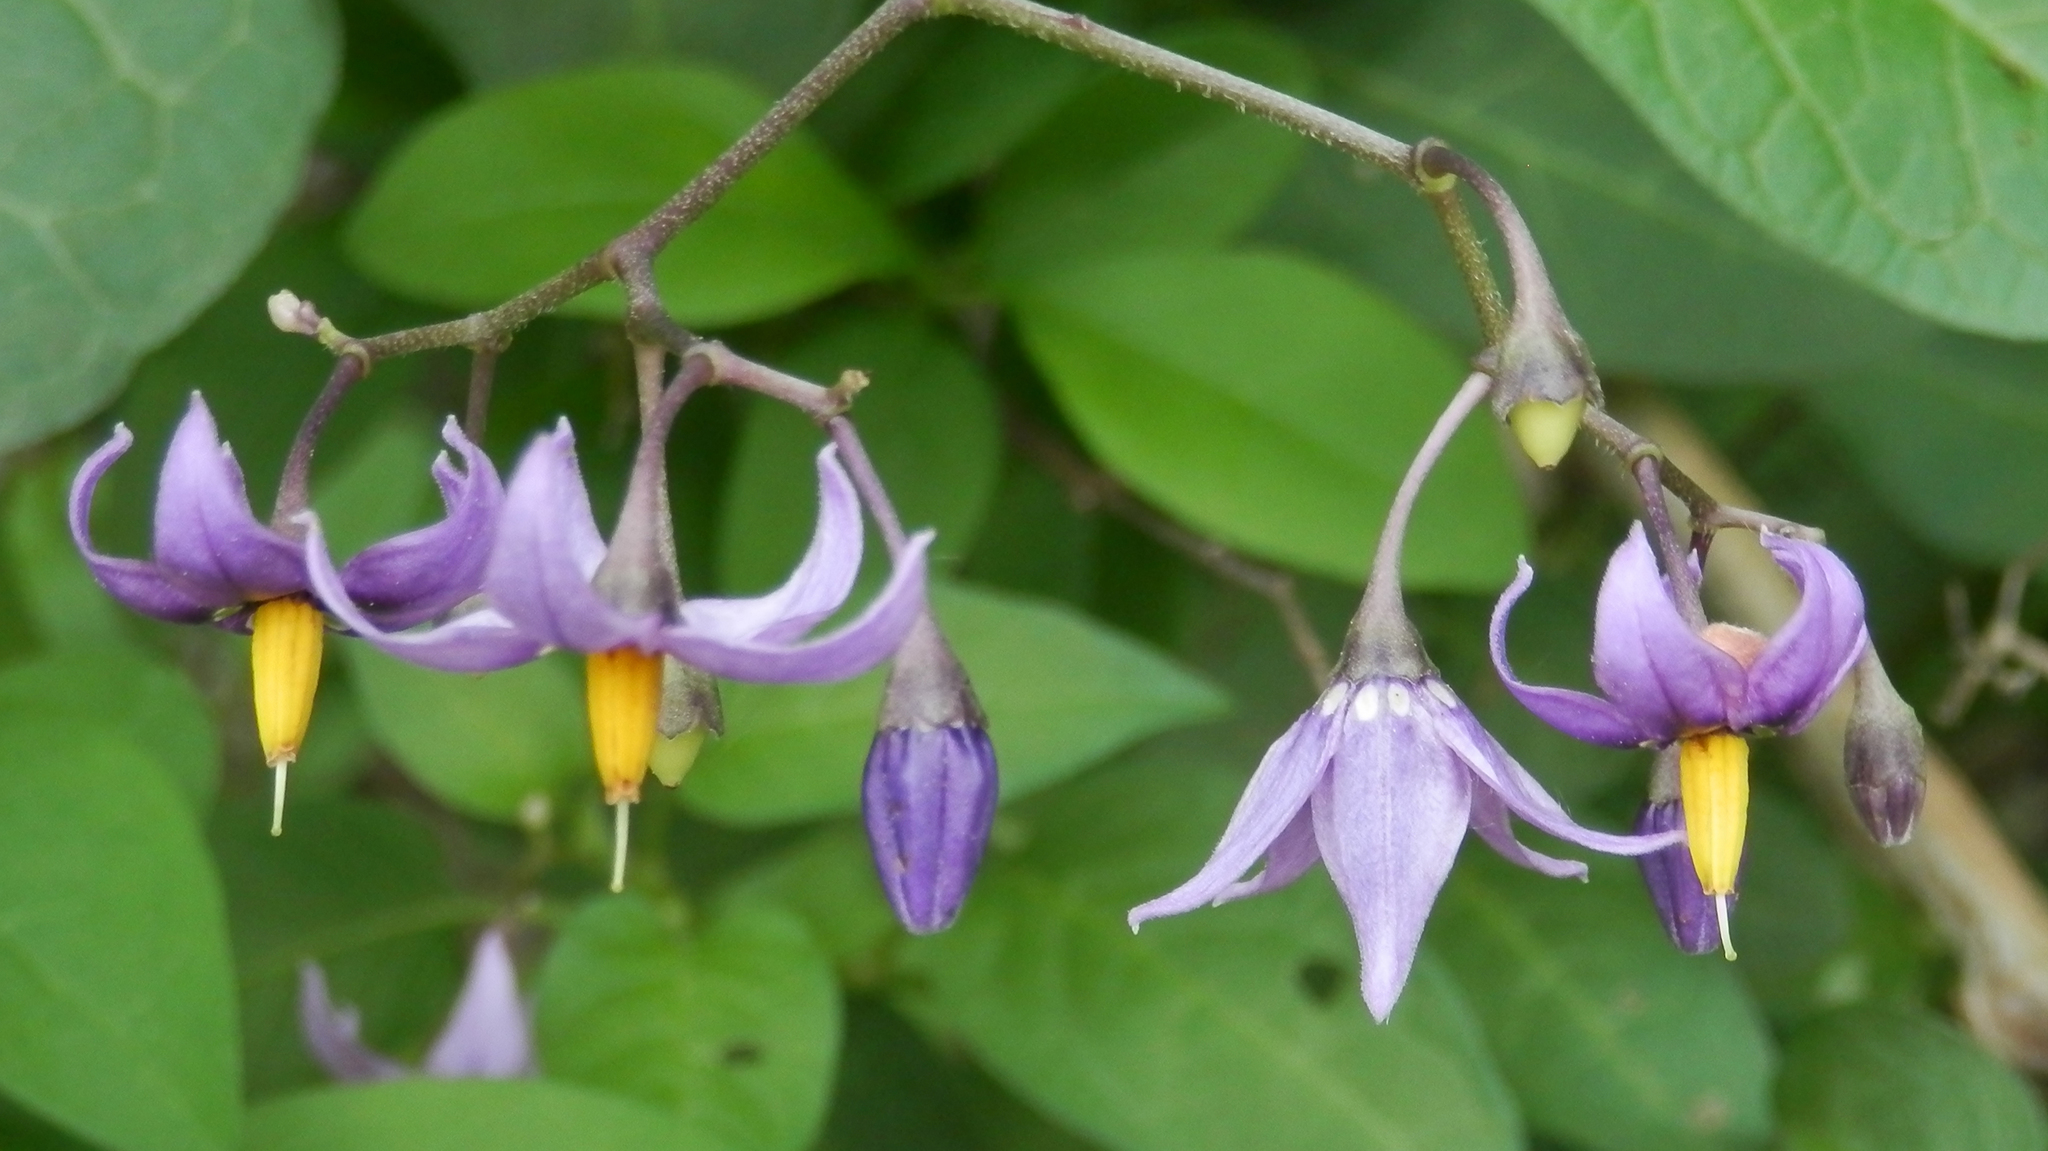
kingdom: Plantae
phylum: Tracheophyta
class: Magnoliopsida
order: Solanales
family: Solanaceae
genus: Solanum
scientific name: Solanum dulcamara
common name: Climbing nightshade
